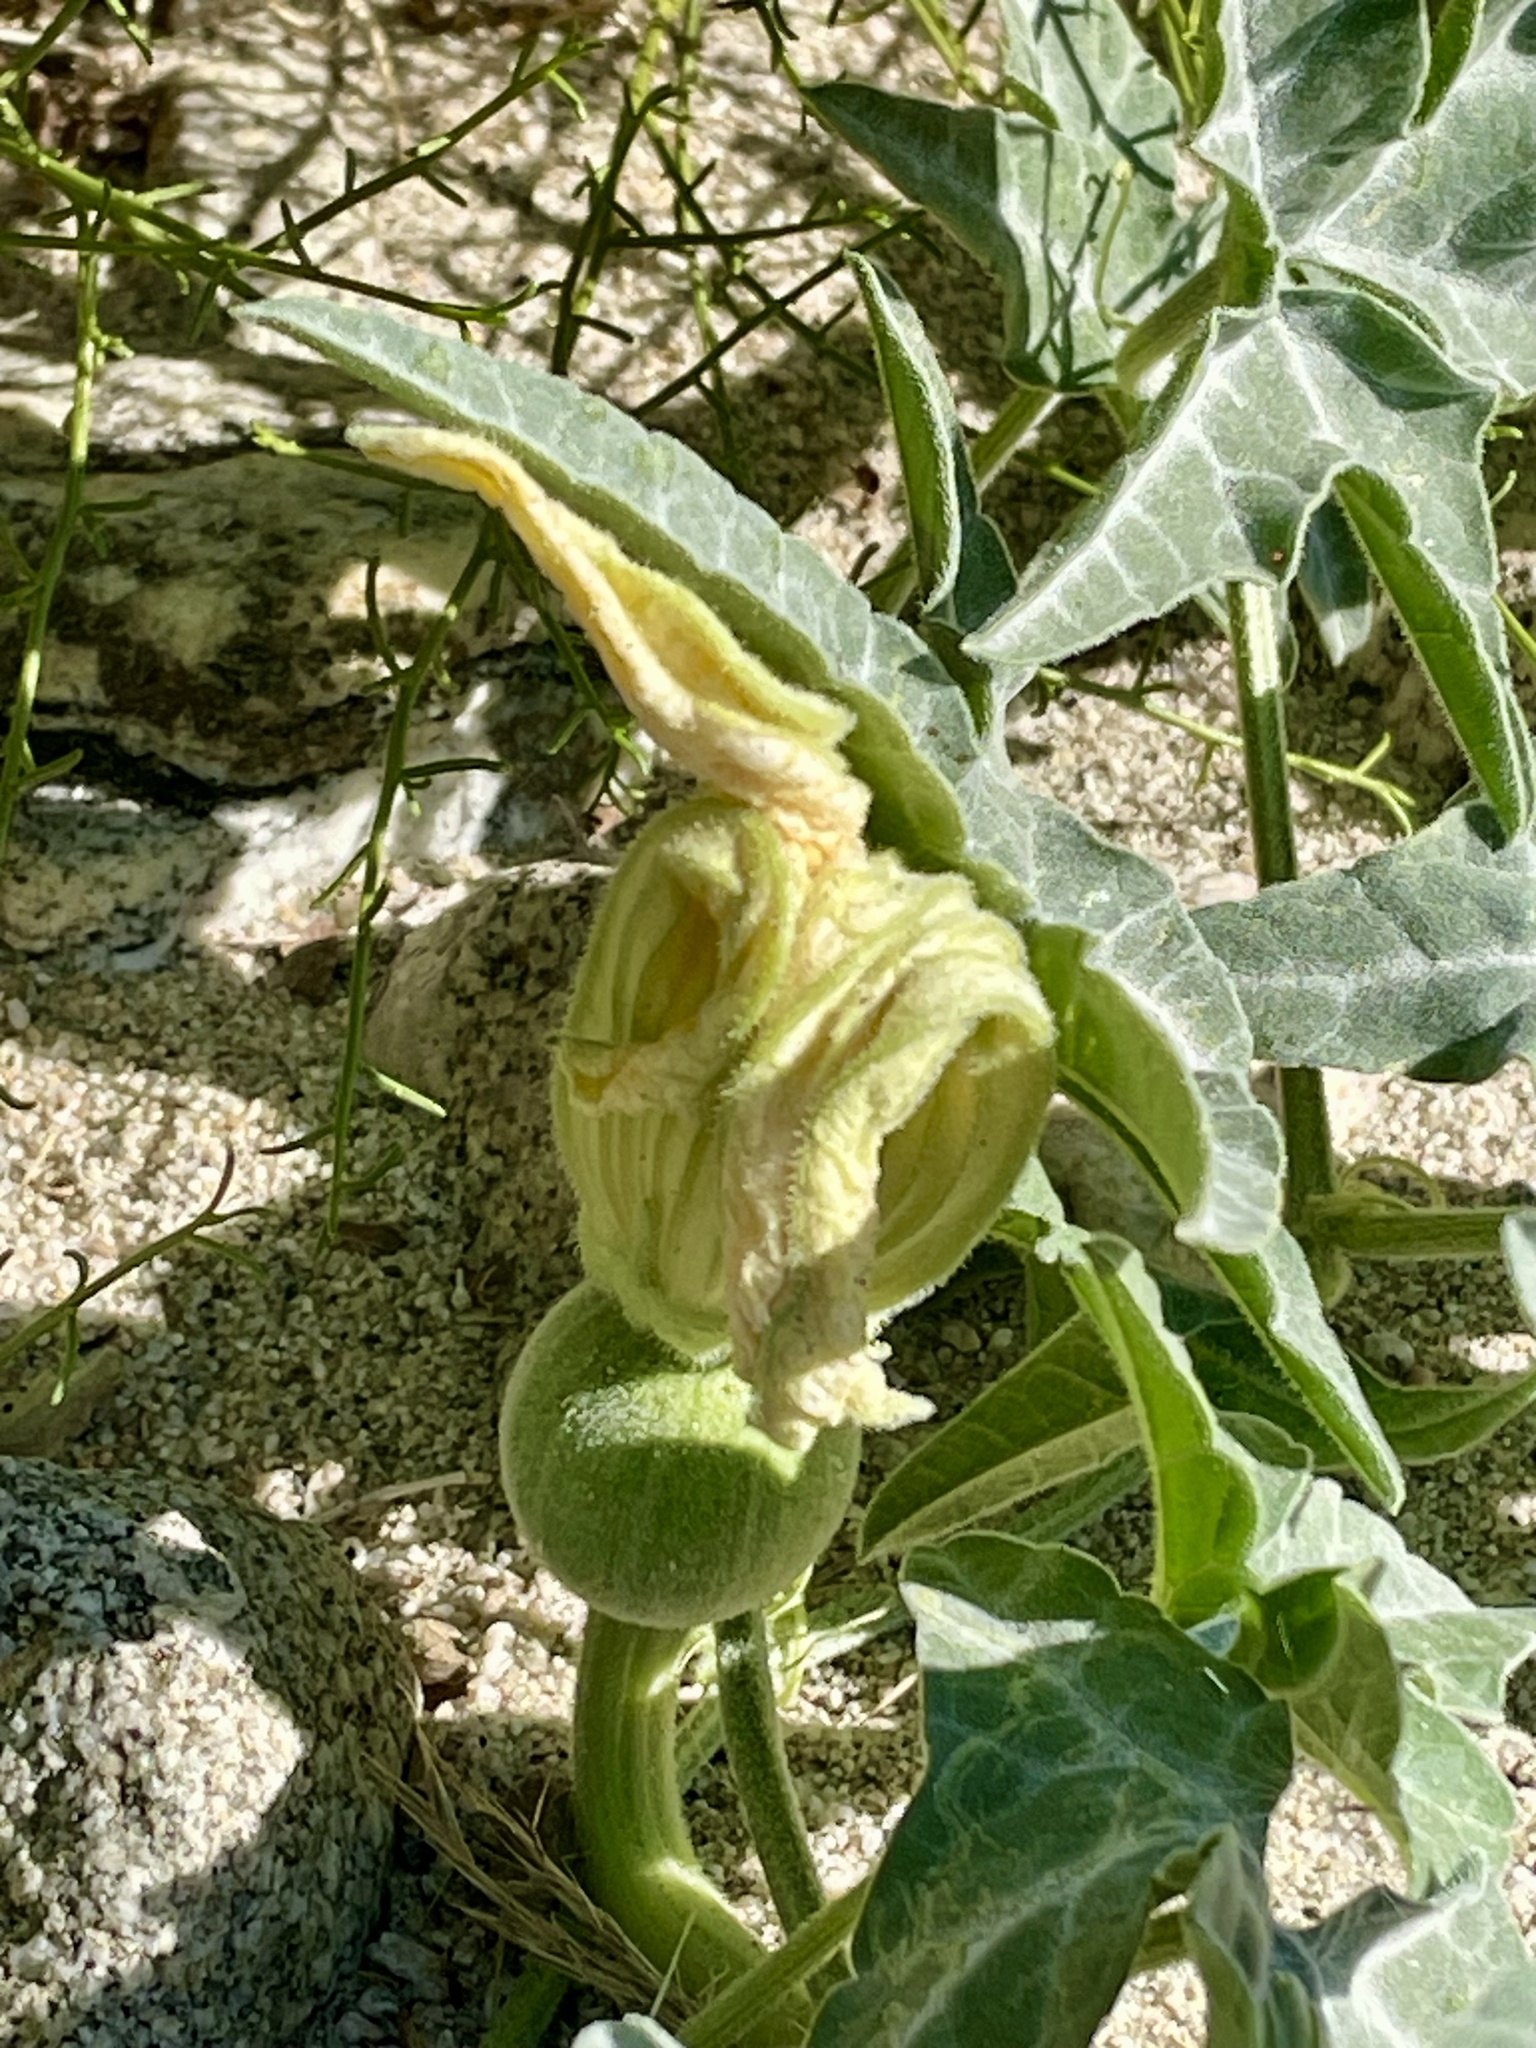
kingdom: Plantae
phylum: Tracheophyta
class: Magnoliopsida
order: Cucurbitales
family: Cucurbitaceae
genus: Cucurbita
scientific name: Cucurbita palmata
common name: Coyote-melon
